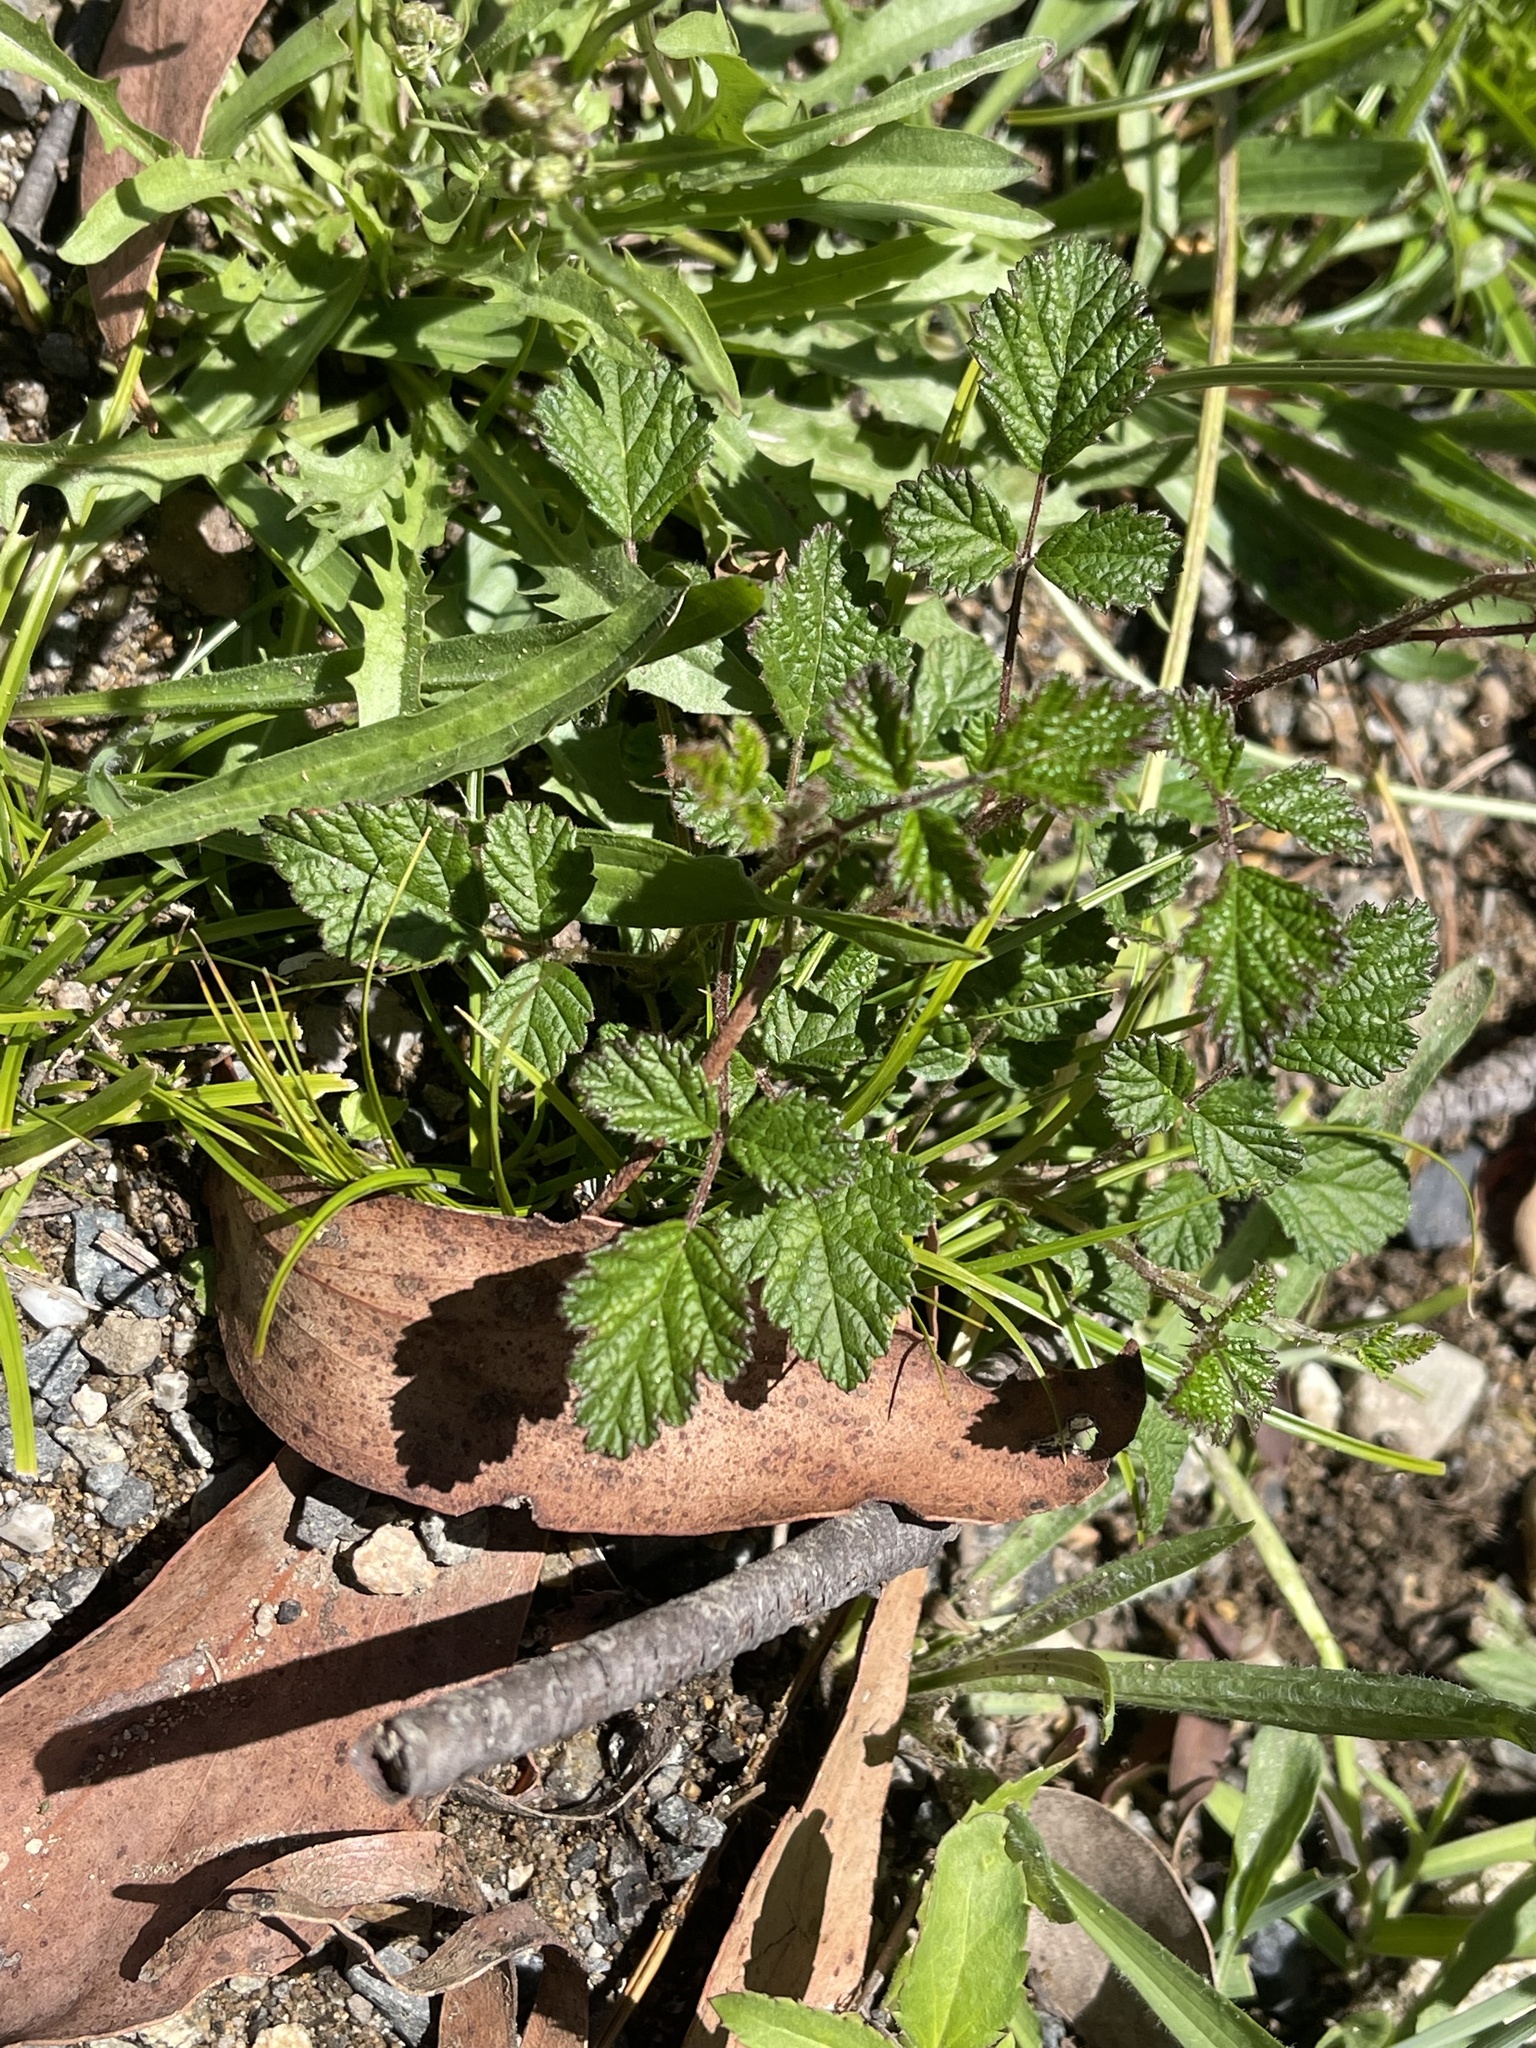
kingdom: Plantae
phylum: Tracheophyta
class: Magnoliopsida
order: Rosales
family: Rosaceae
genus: Rubus
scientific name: Rubus parvifolius
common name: Threeleaf blackberry
